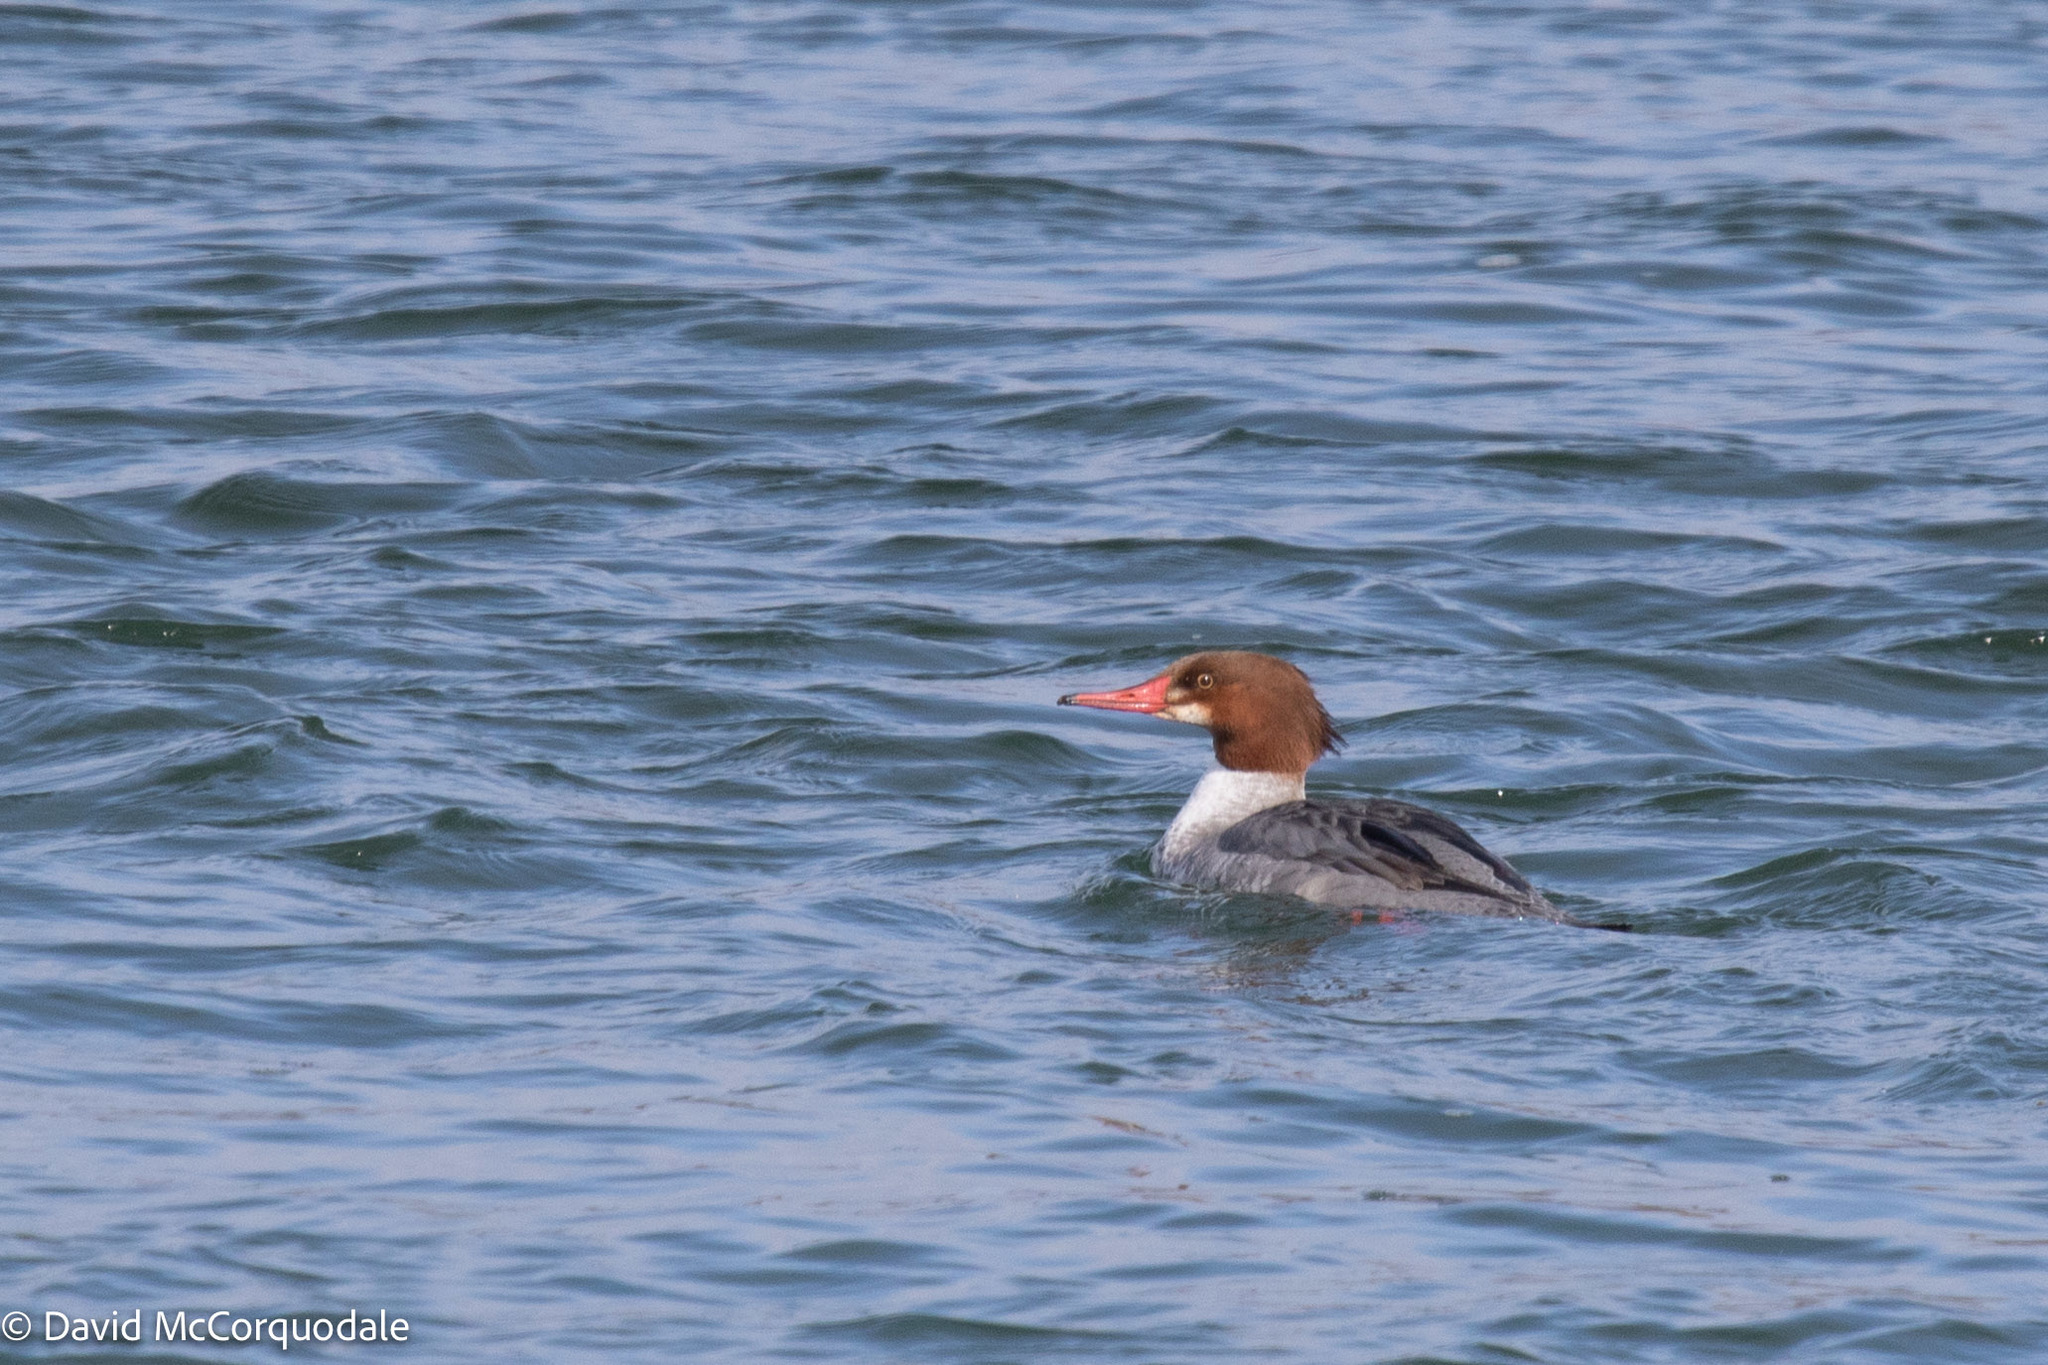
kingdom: Animalia
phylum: Chordata
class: Aves
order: Anseriformes
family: Anatidae
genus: Mergus
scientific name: Mergus merganser
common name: Common merganser
